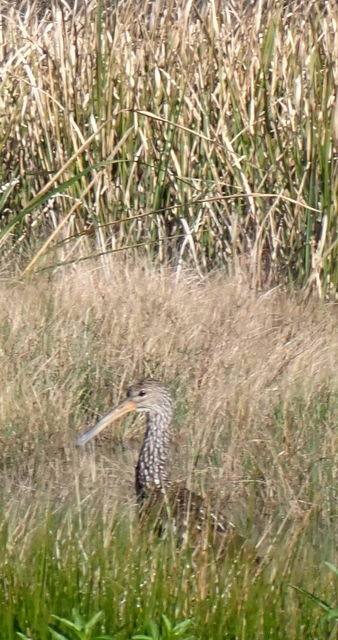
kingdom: Animalia
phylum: Chordata
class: Aves
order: Gruiformes
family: Aramidae
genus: Aramus
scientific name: Aramus guarauna
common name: Limpkin
